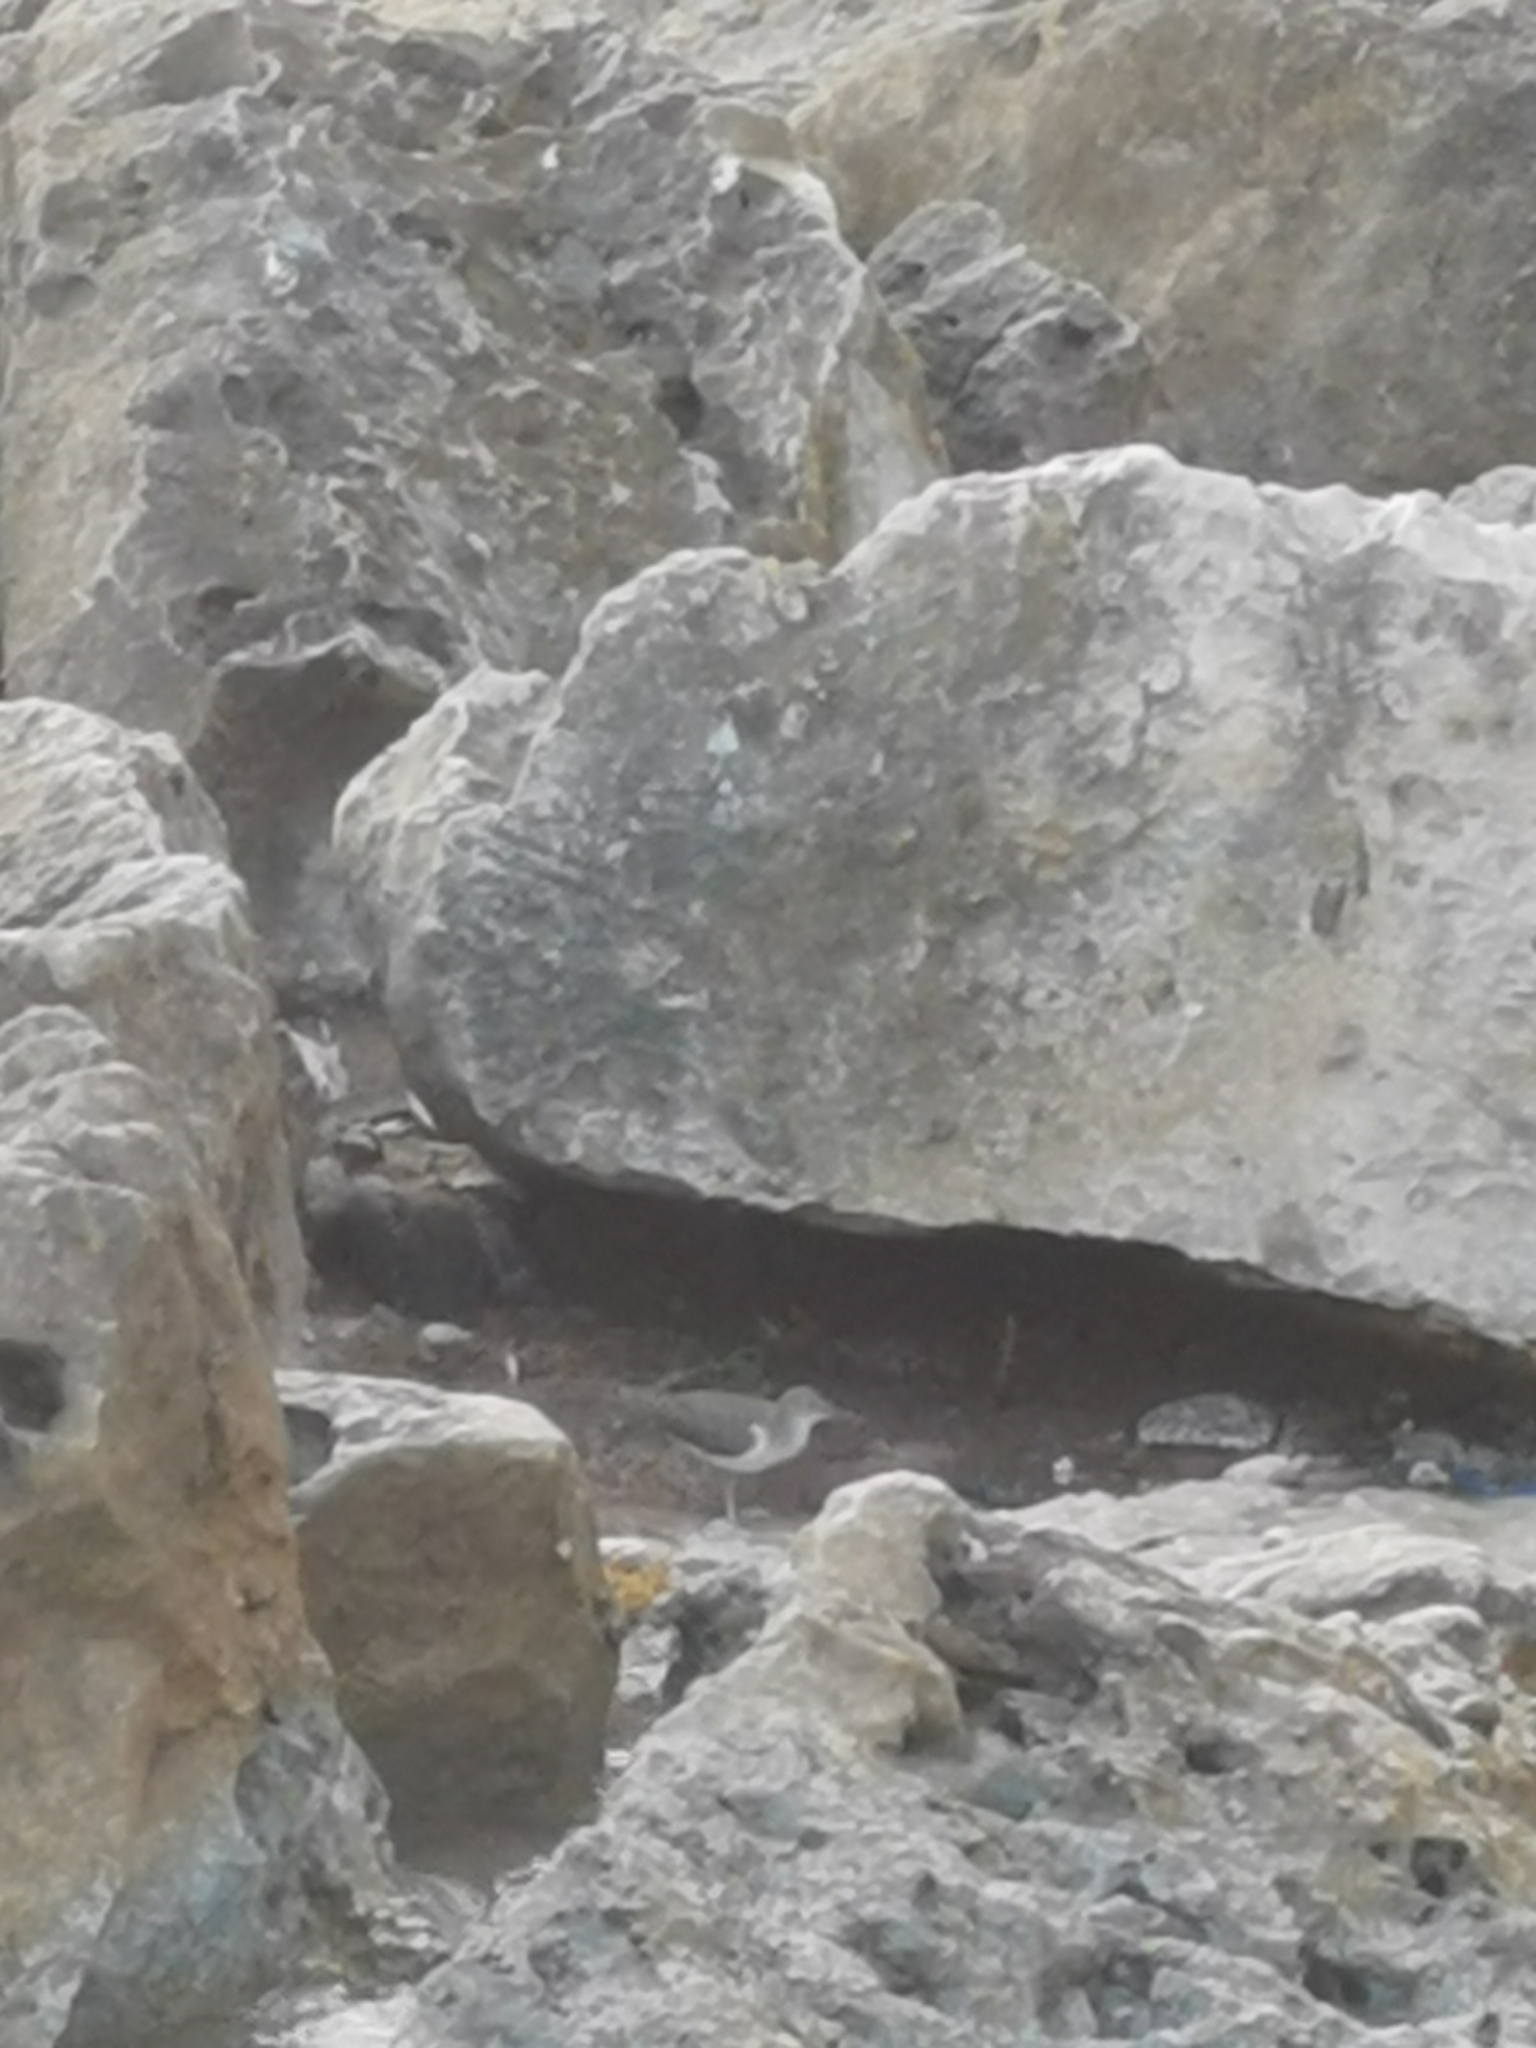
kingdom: Animalia
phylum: Chordata
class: Aves
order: Charadriiformes
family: Scolopacidae
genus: Actitis
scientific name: Actitis macularius
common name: Spotted sandpiper
